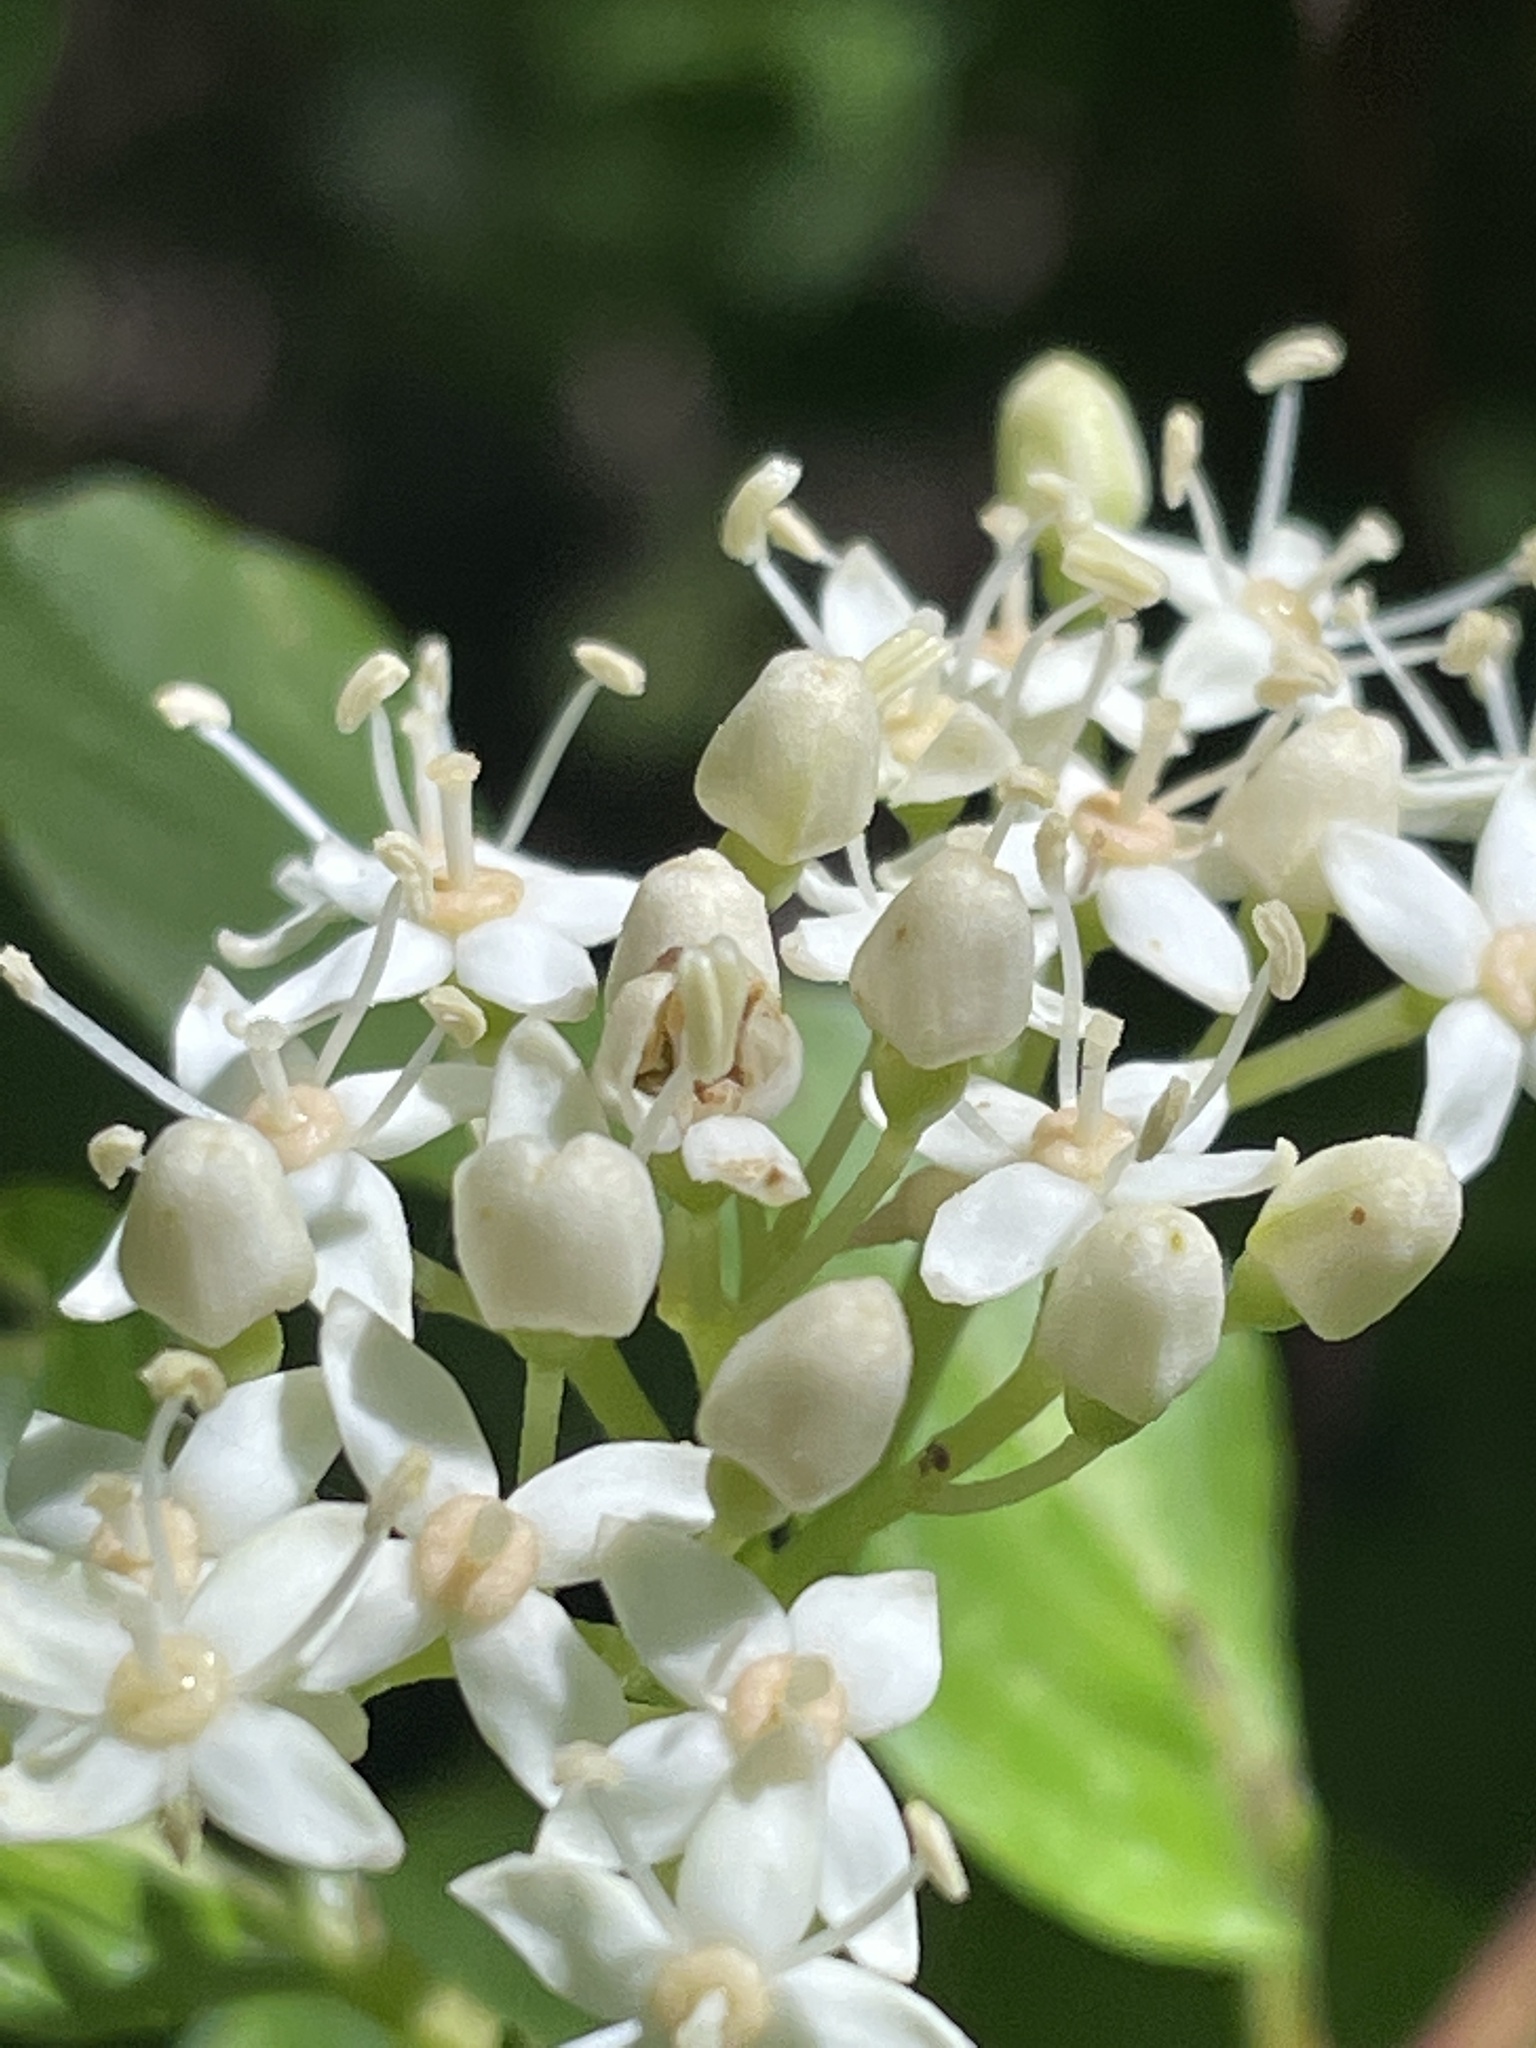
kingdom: Plantae
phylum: Tracheophyta
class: Magnoliopsida
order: Cornales
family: Cornaceae
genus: Cornus
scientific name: Cornus sericea
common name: Red-osier dogwood
